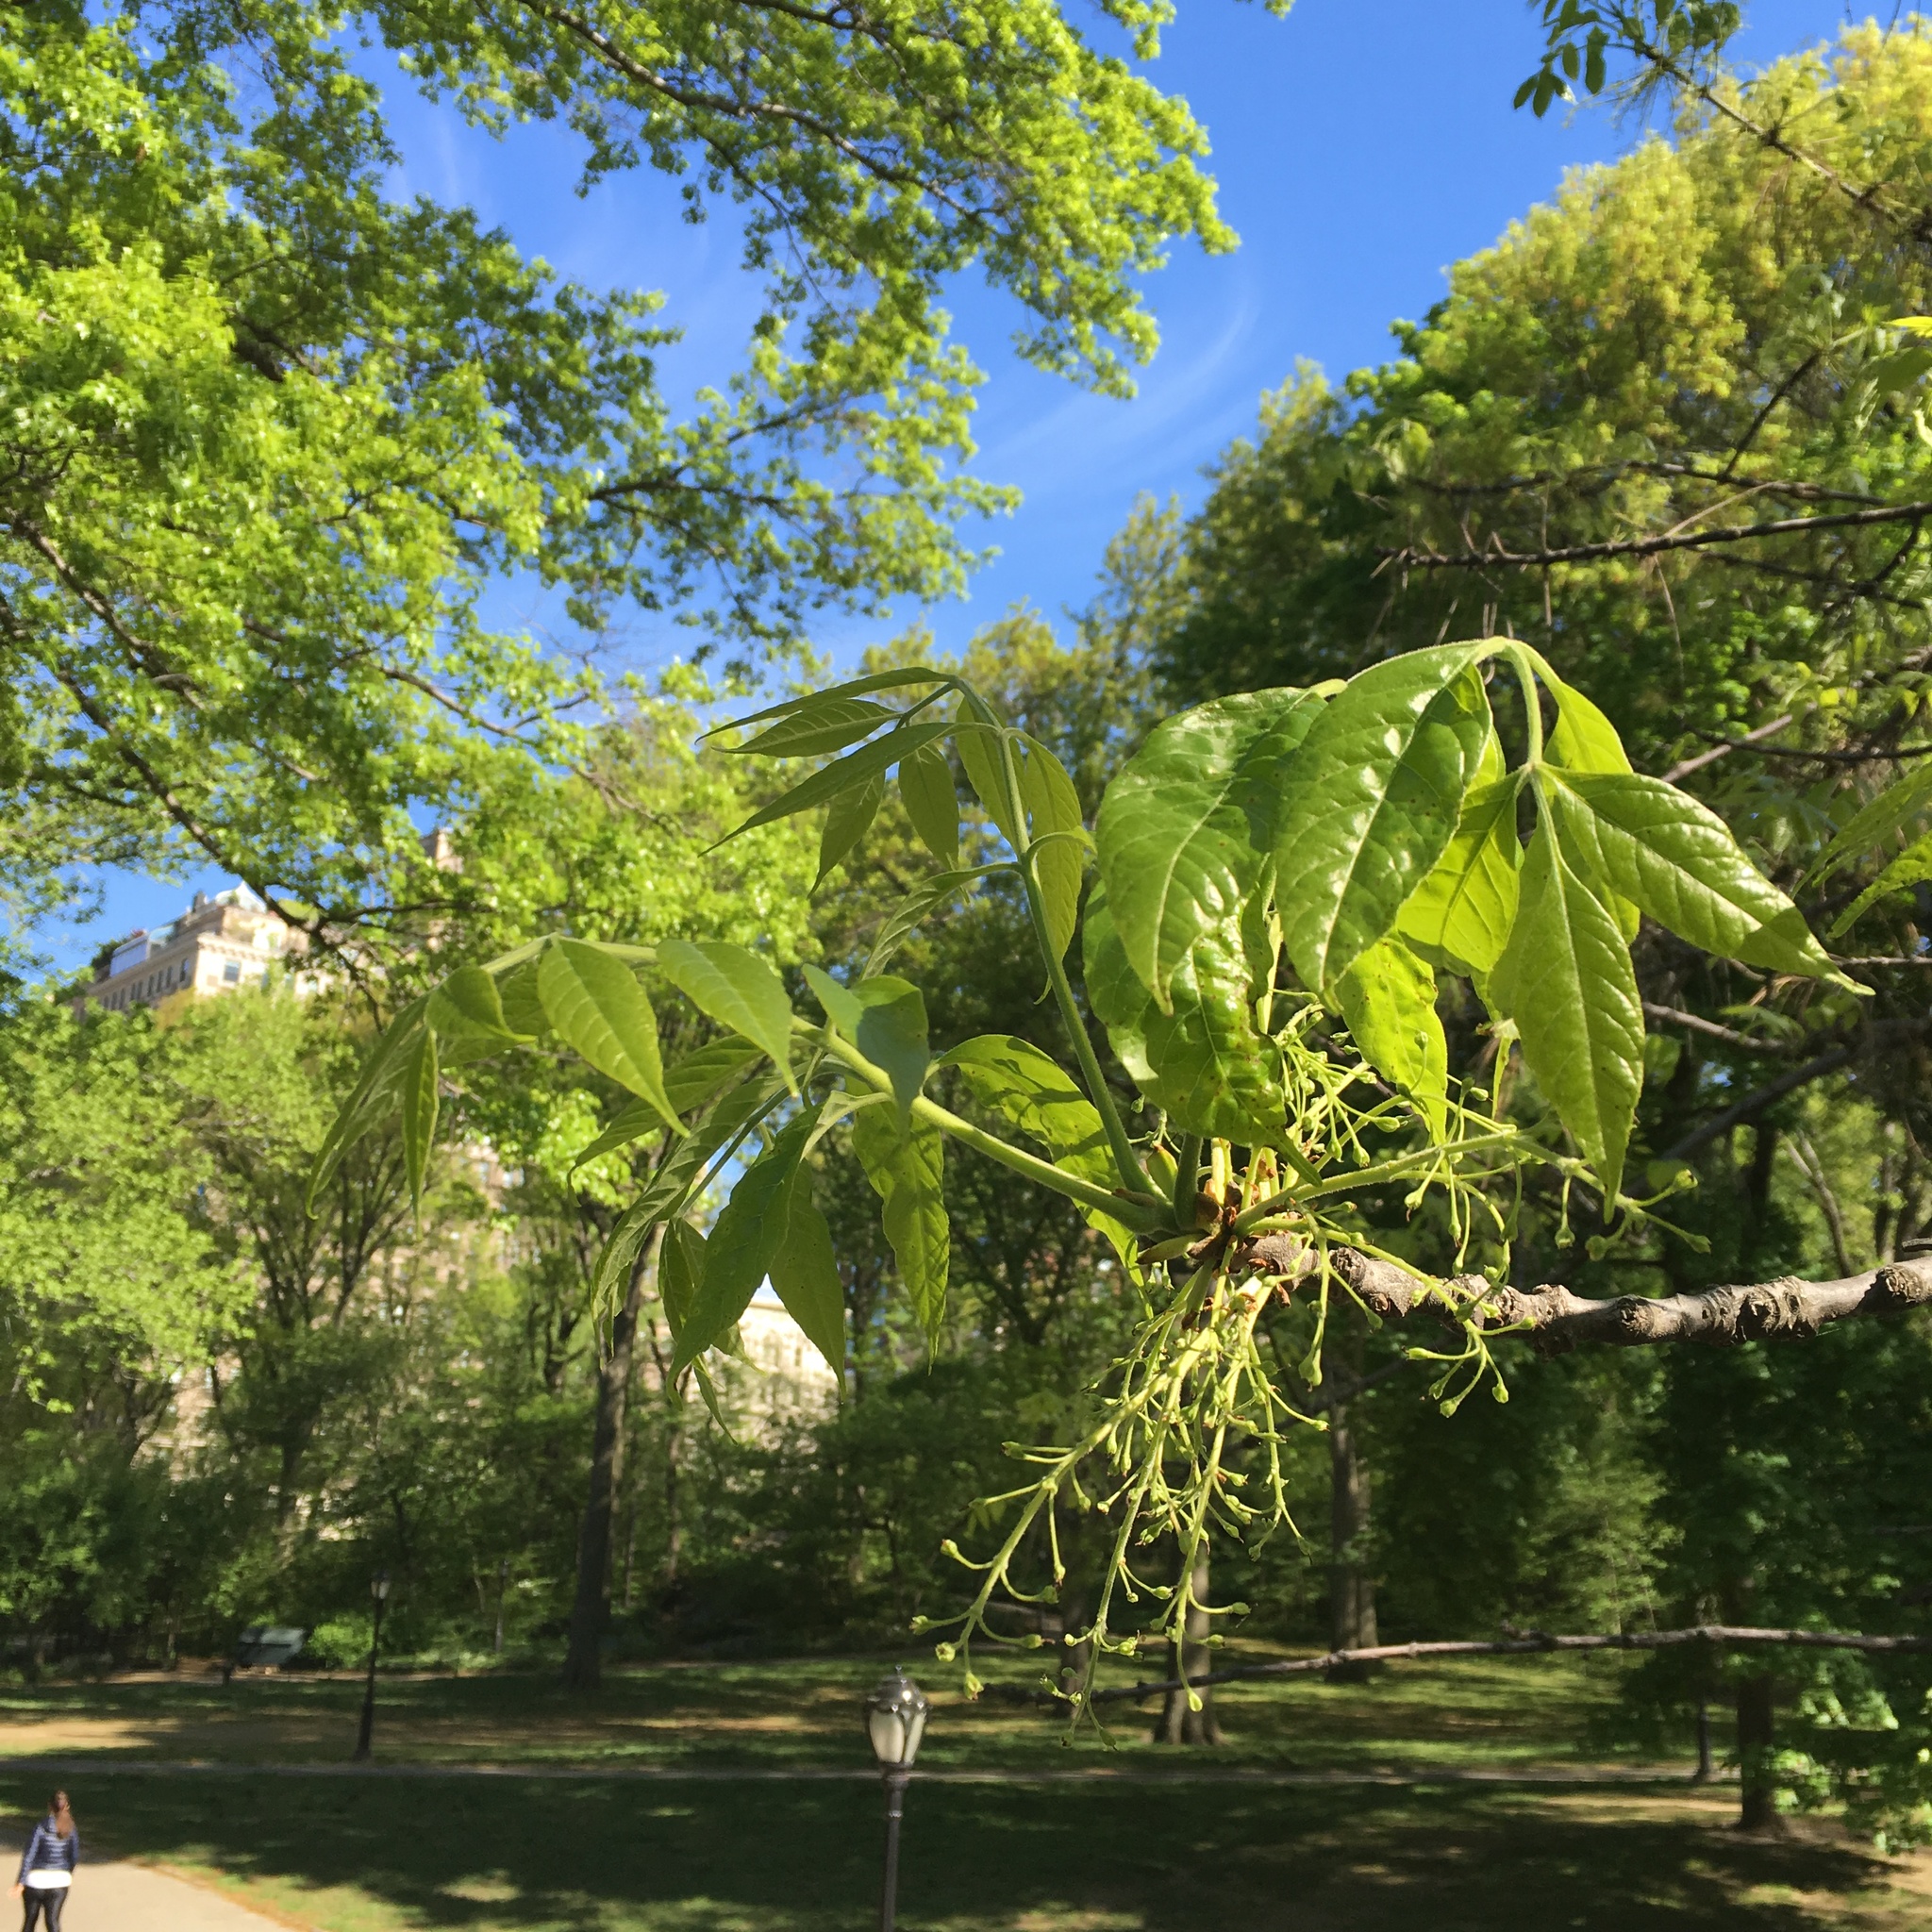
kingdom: Plantae
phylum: Tracheophyta
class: Magnoliopsida
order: Lamiales
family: Oleaceae
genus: Fraxinus
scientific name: Fraxinus profunda
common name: Pumpkin ash
